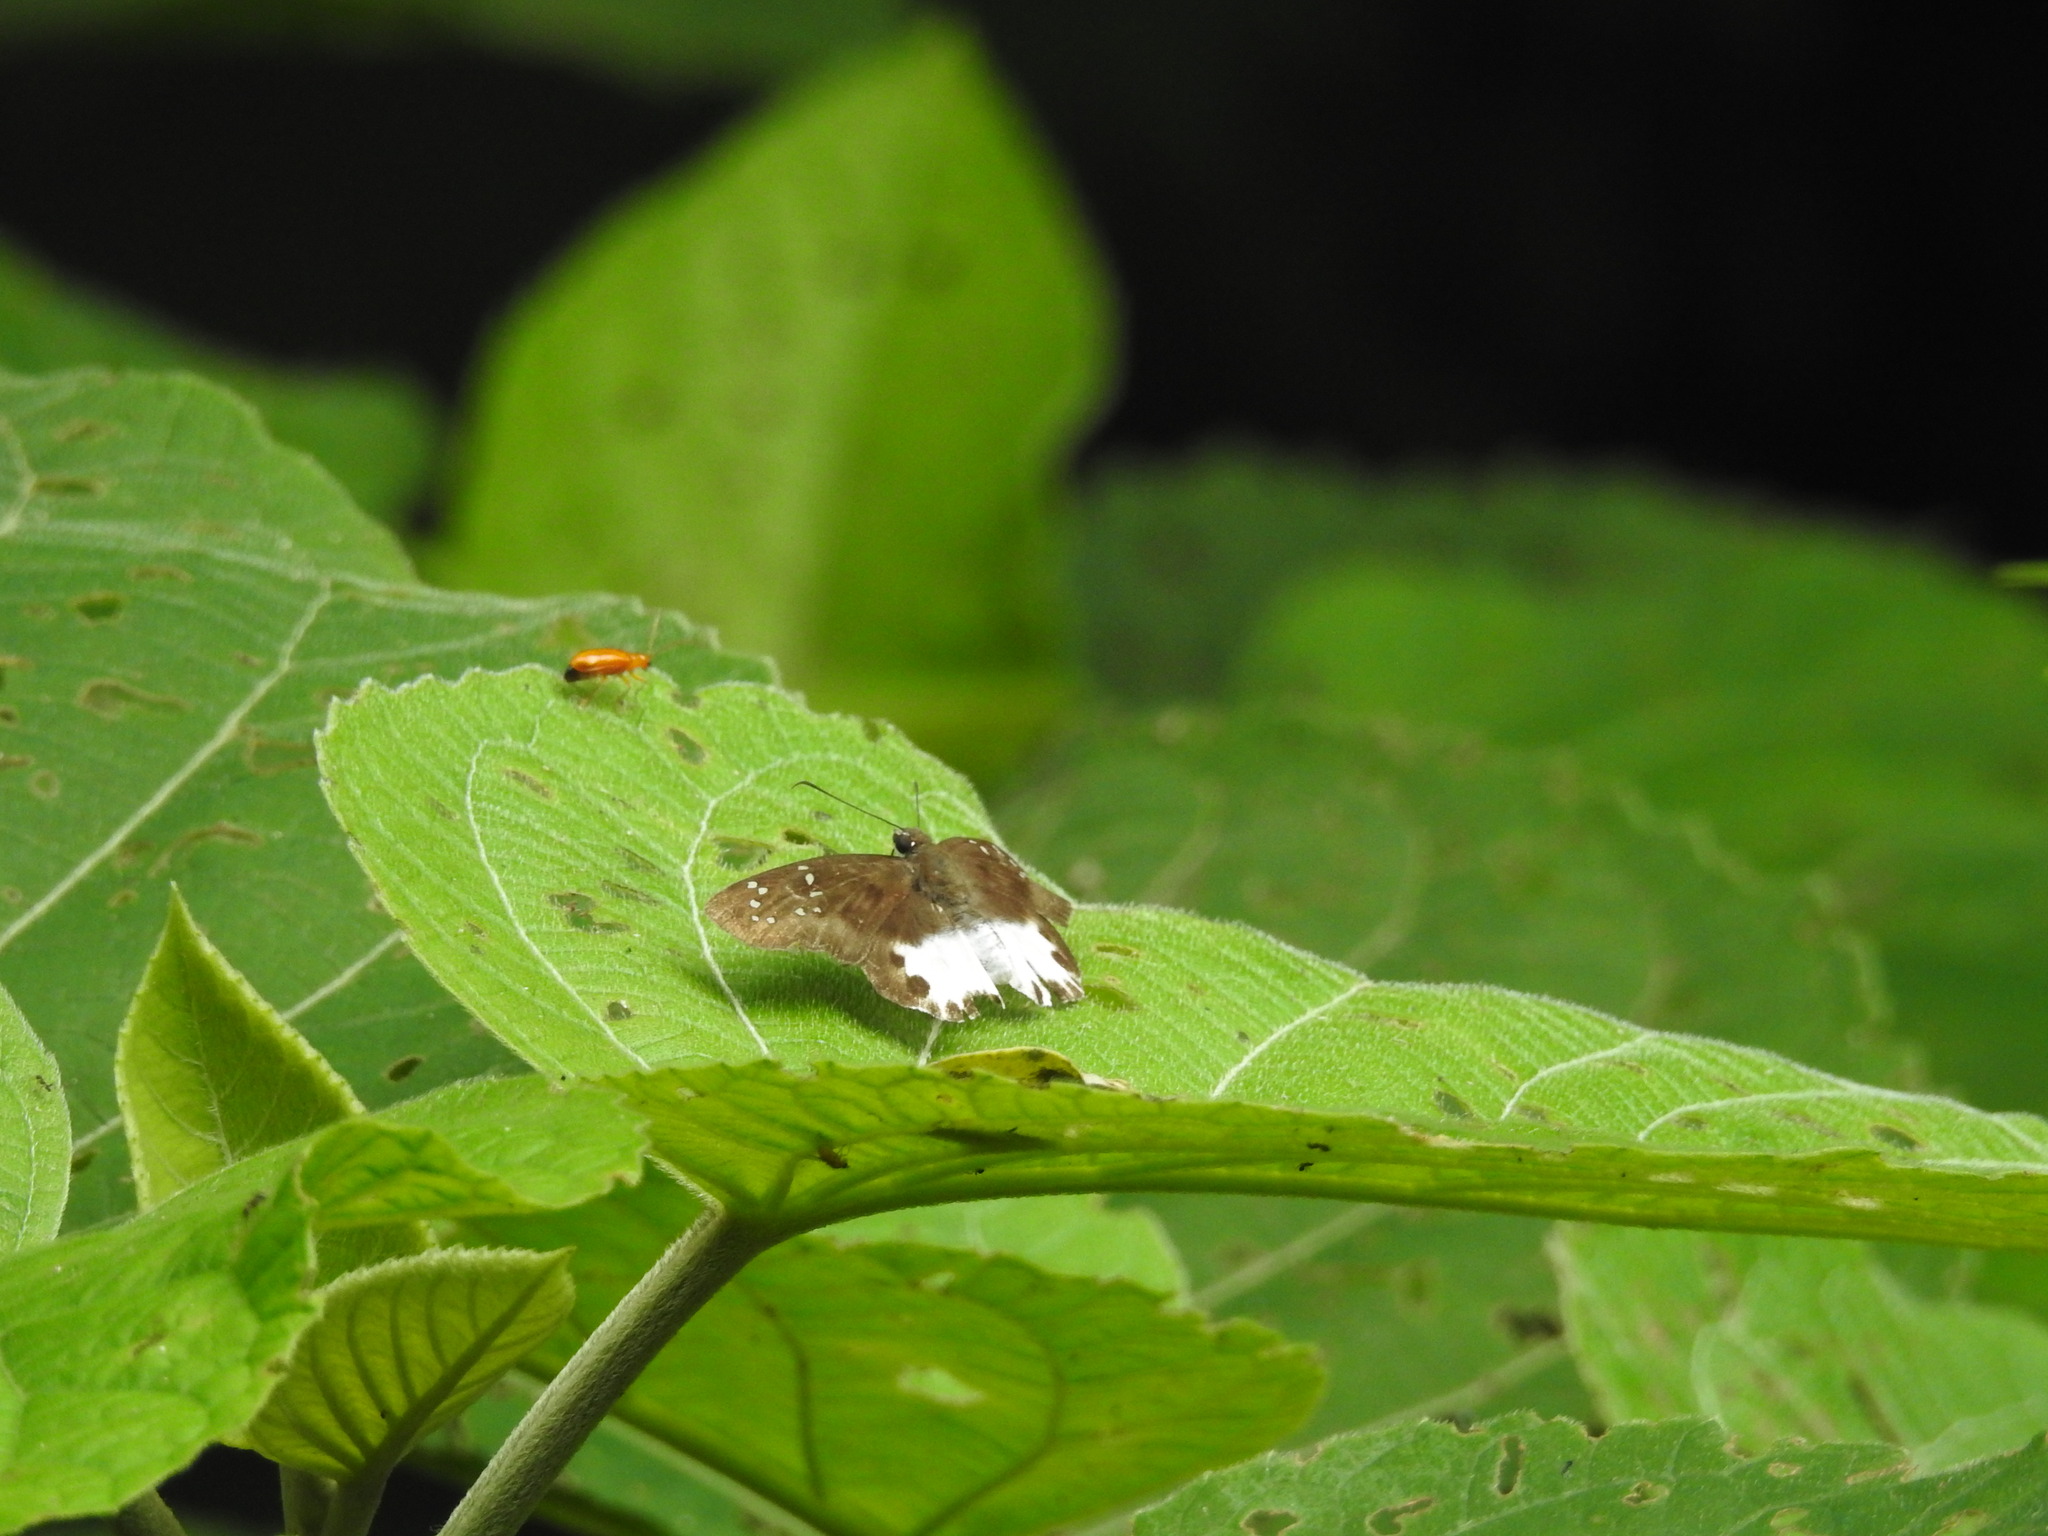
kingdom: Animalia
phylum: Arthropoda
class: Insecta
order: Lepidoptera
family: Hesperiidae
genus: Tagiades
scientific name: Tagiades litigiosa
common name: Water snow flat
